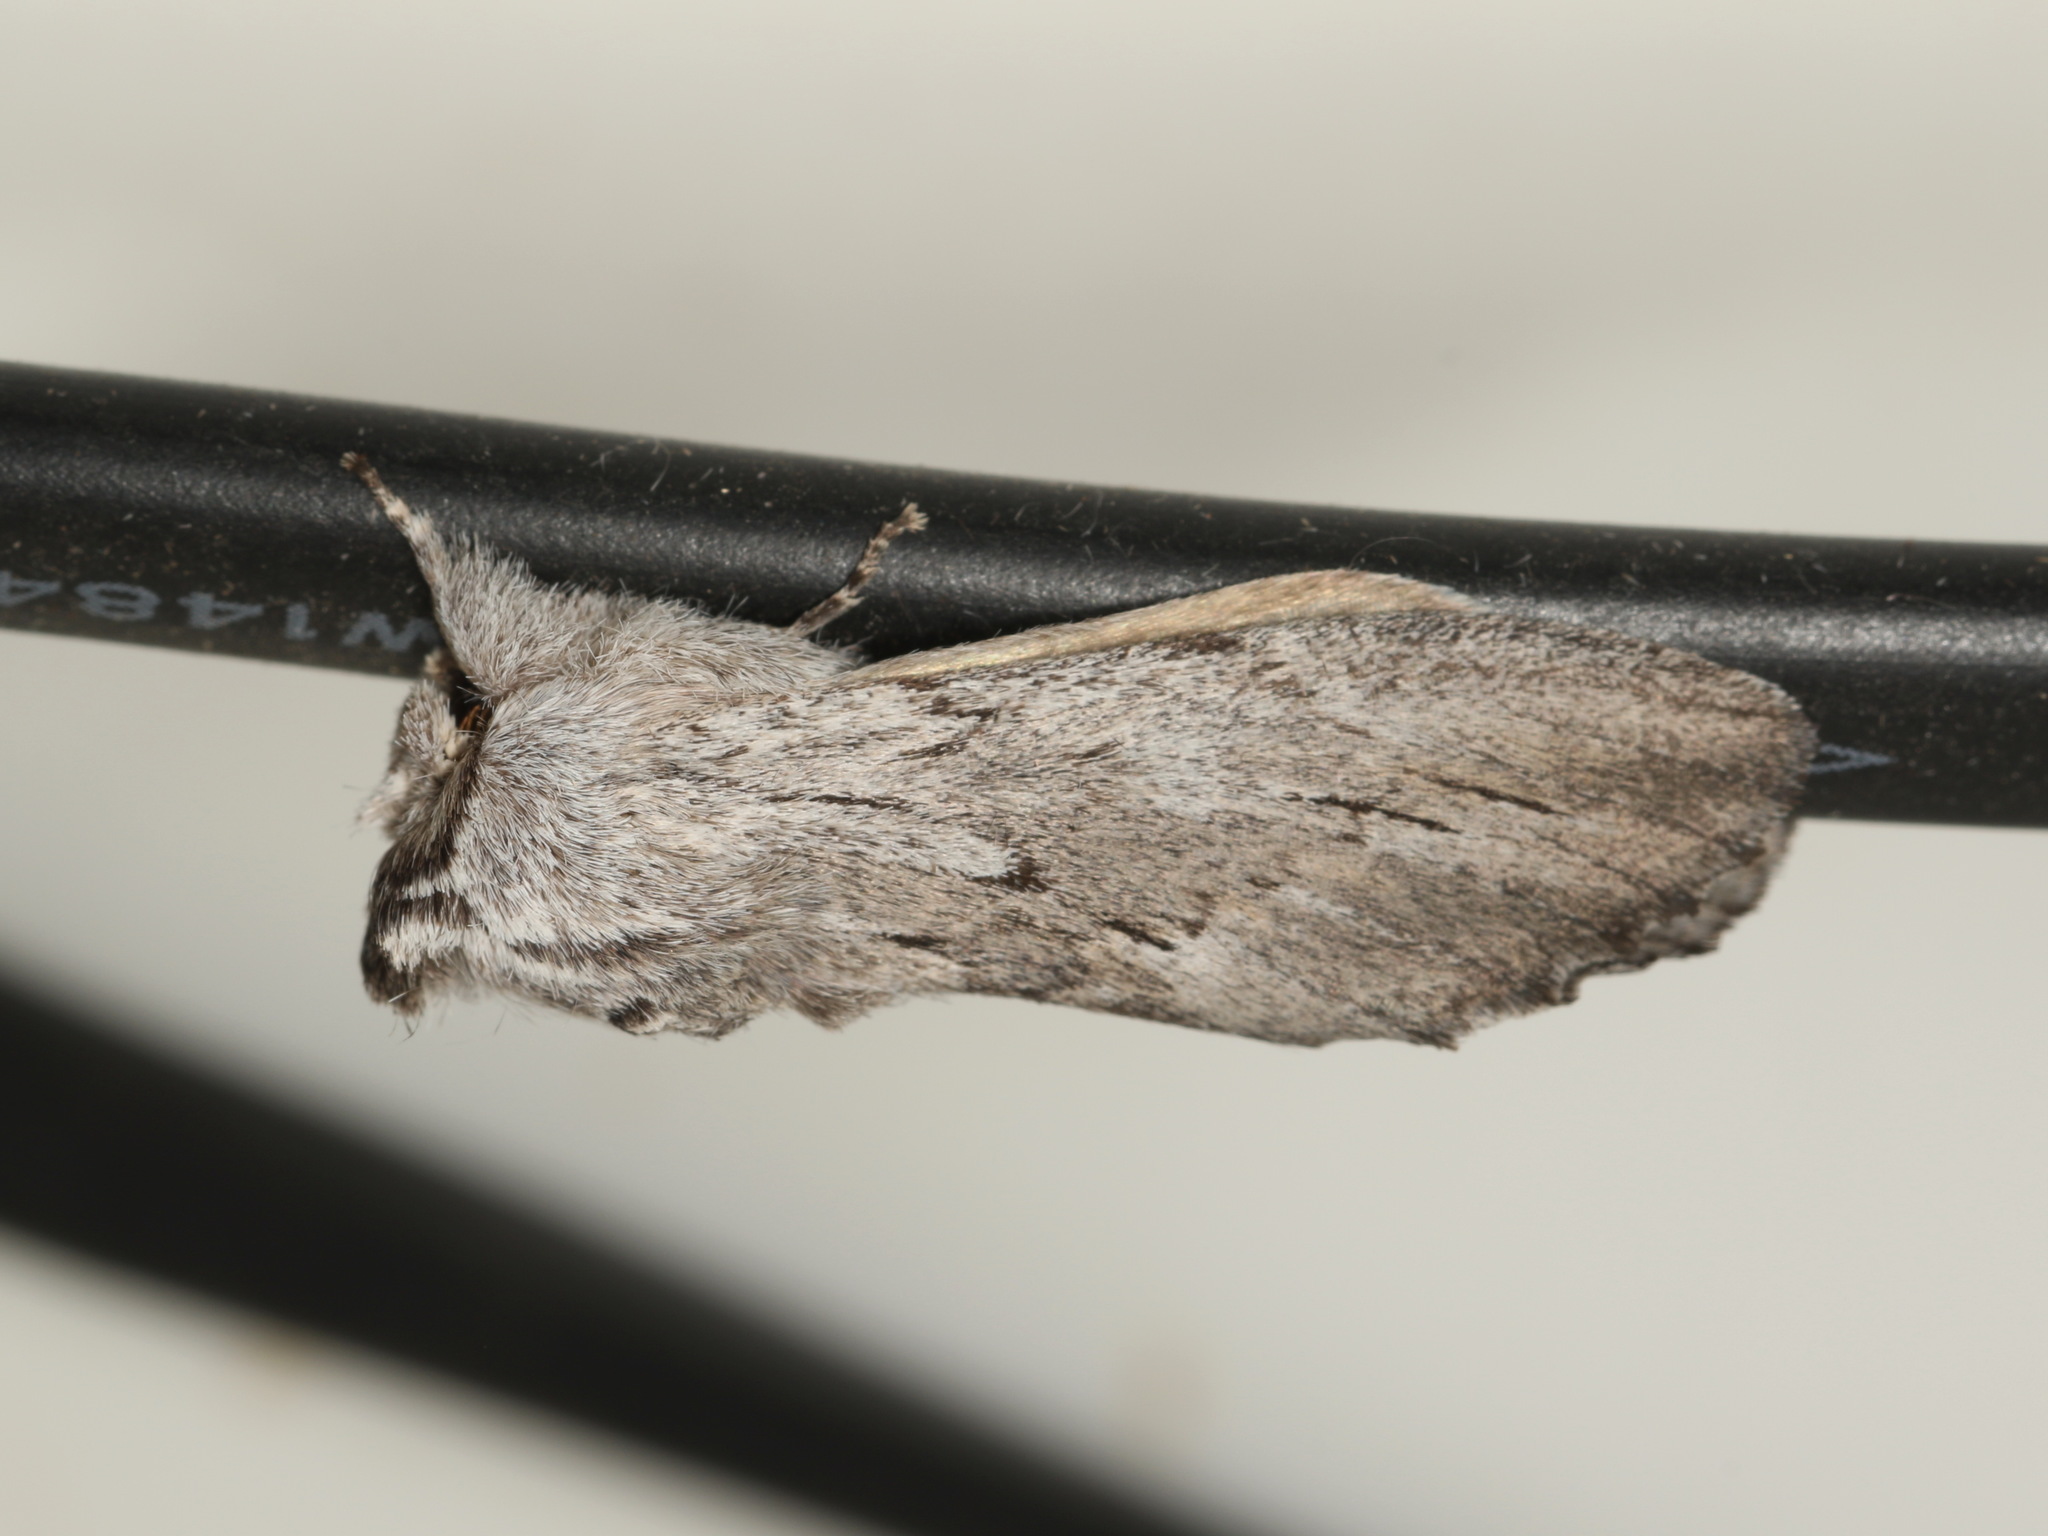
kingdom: Animalia
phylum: Arthropoda
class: Insecta
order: Lepidoptera
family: Notodontidae
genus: Destolmia
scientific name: Destolmia lineata
